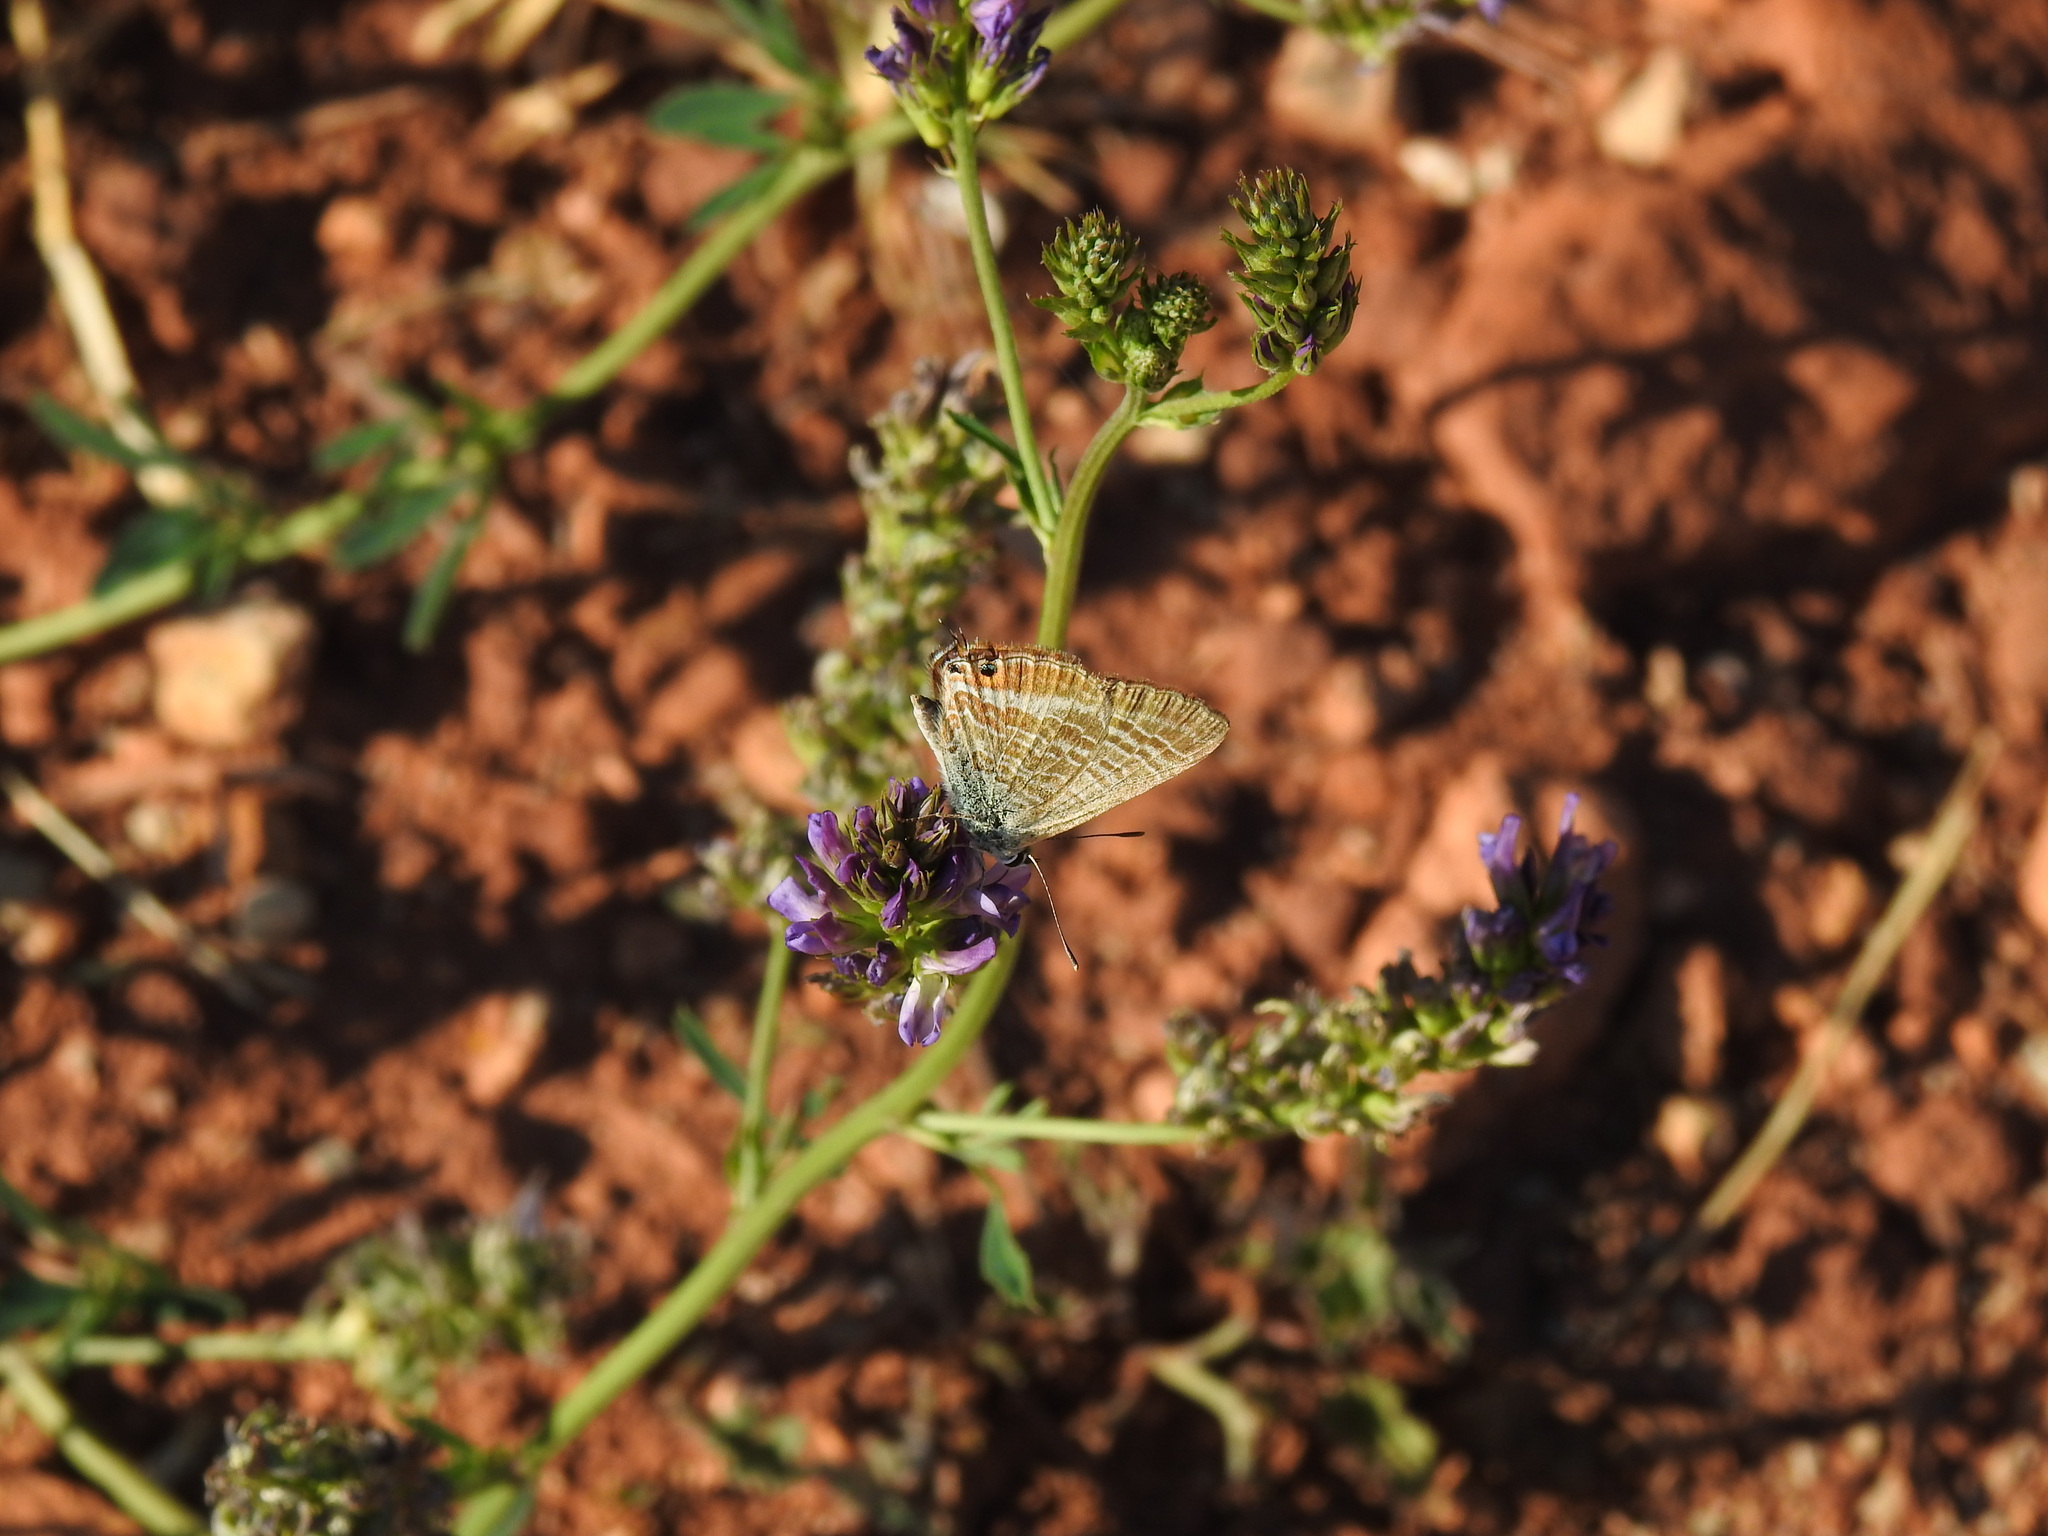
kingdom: Animalia
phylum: Arthropoda
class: Insecta
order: Lepidoptera
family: Lycaenidae
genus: Lampides
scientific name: Lampides boeticus
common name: Long-tailed blue
